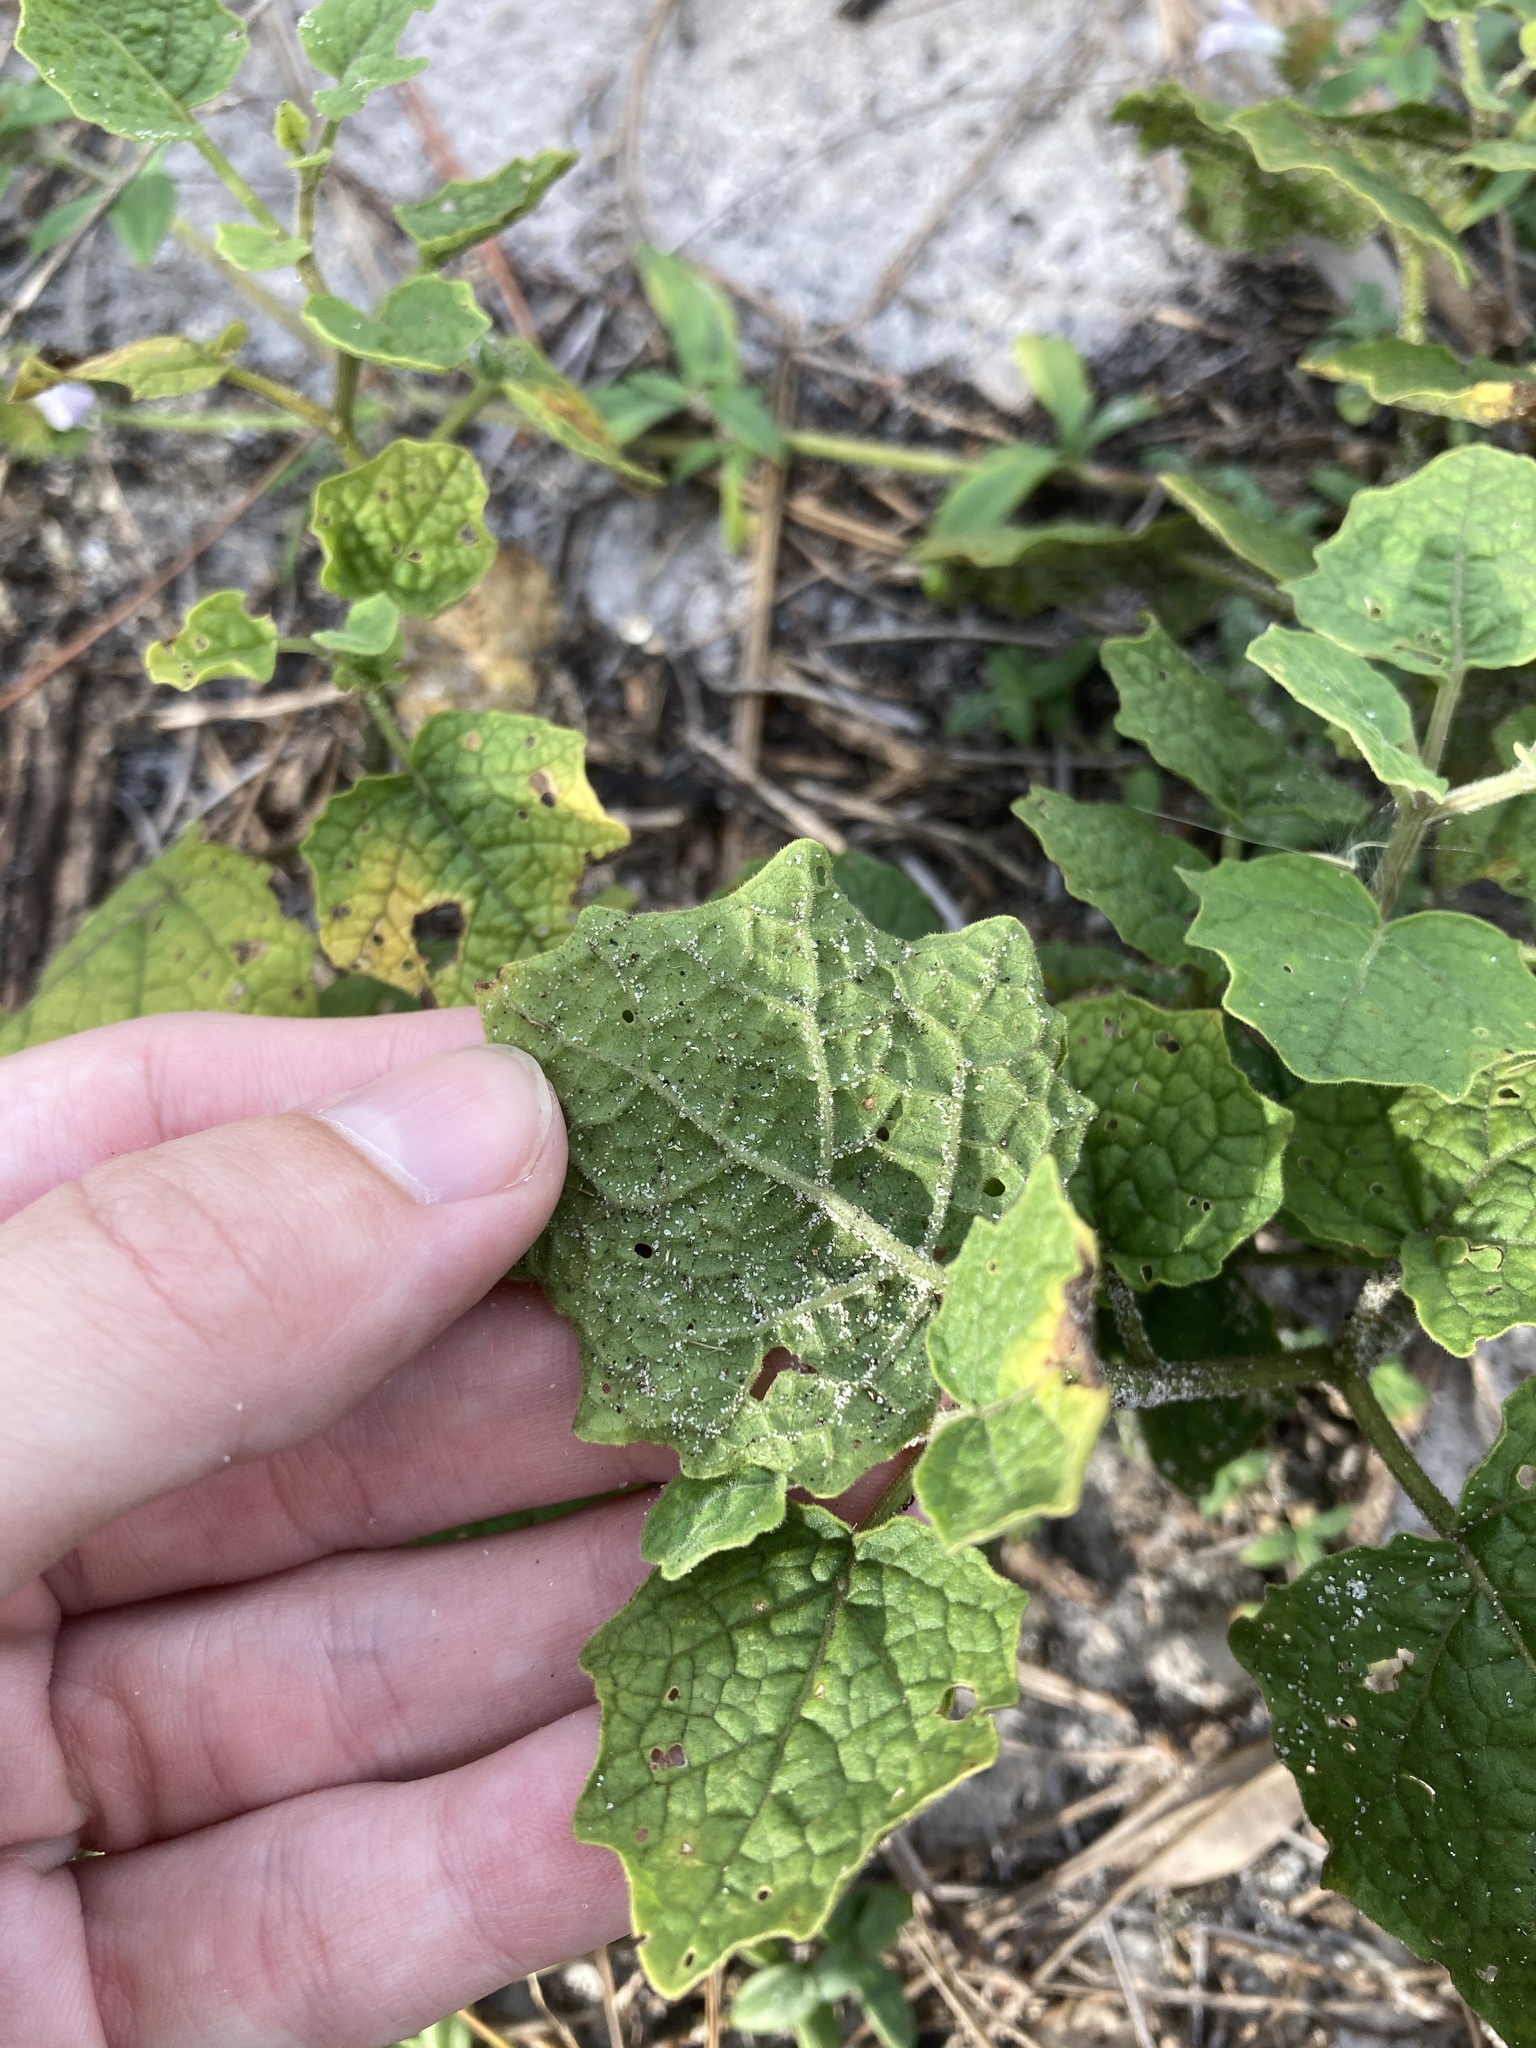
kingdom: Plantae
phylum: Tracheophyta
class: Magnoliopsida
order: Solanales
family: Solanaceae
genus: Physalis
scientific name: Physalis arenicola
